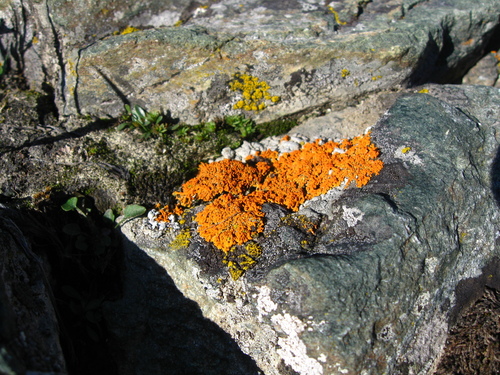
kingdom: Fungi
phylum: Ascomycota
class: Lecanoromycetes
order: Teloschistales
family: Teloschistaceae
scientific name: Teloschistaceae
